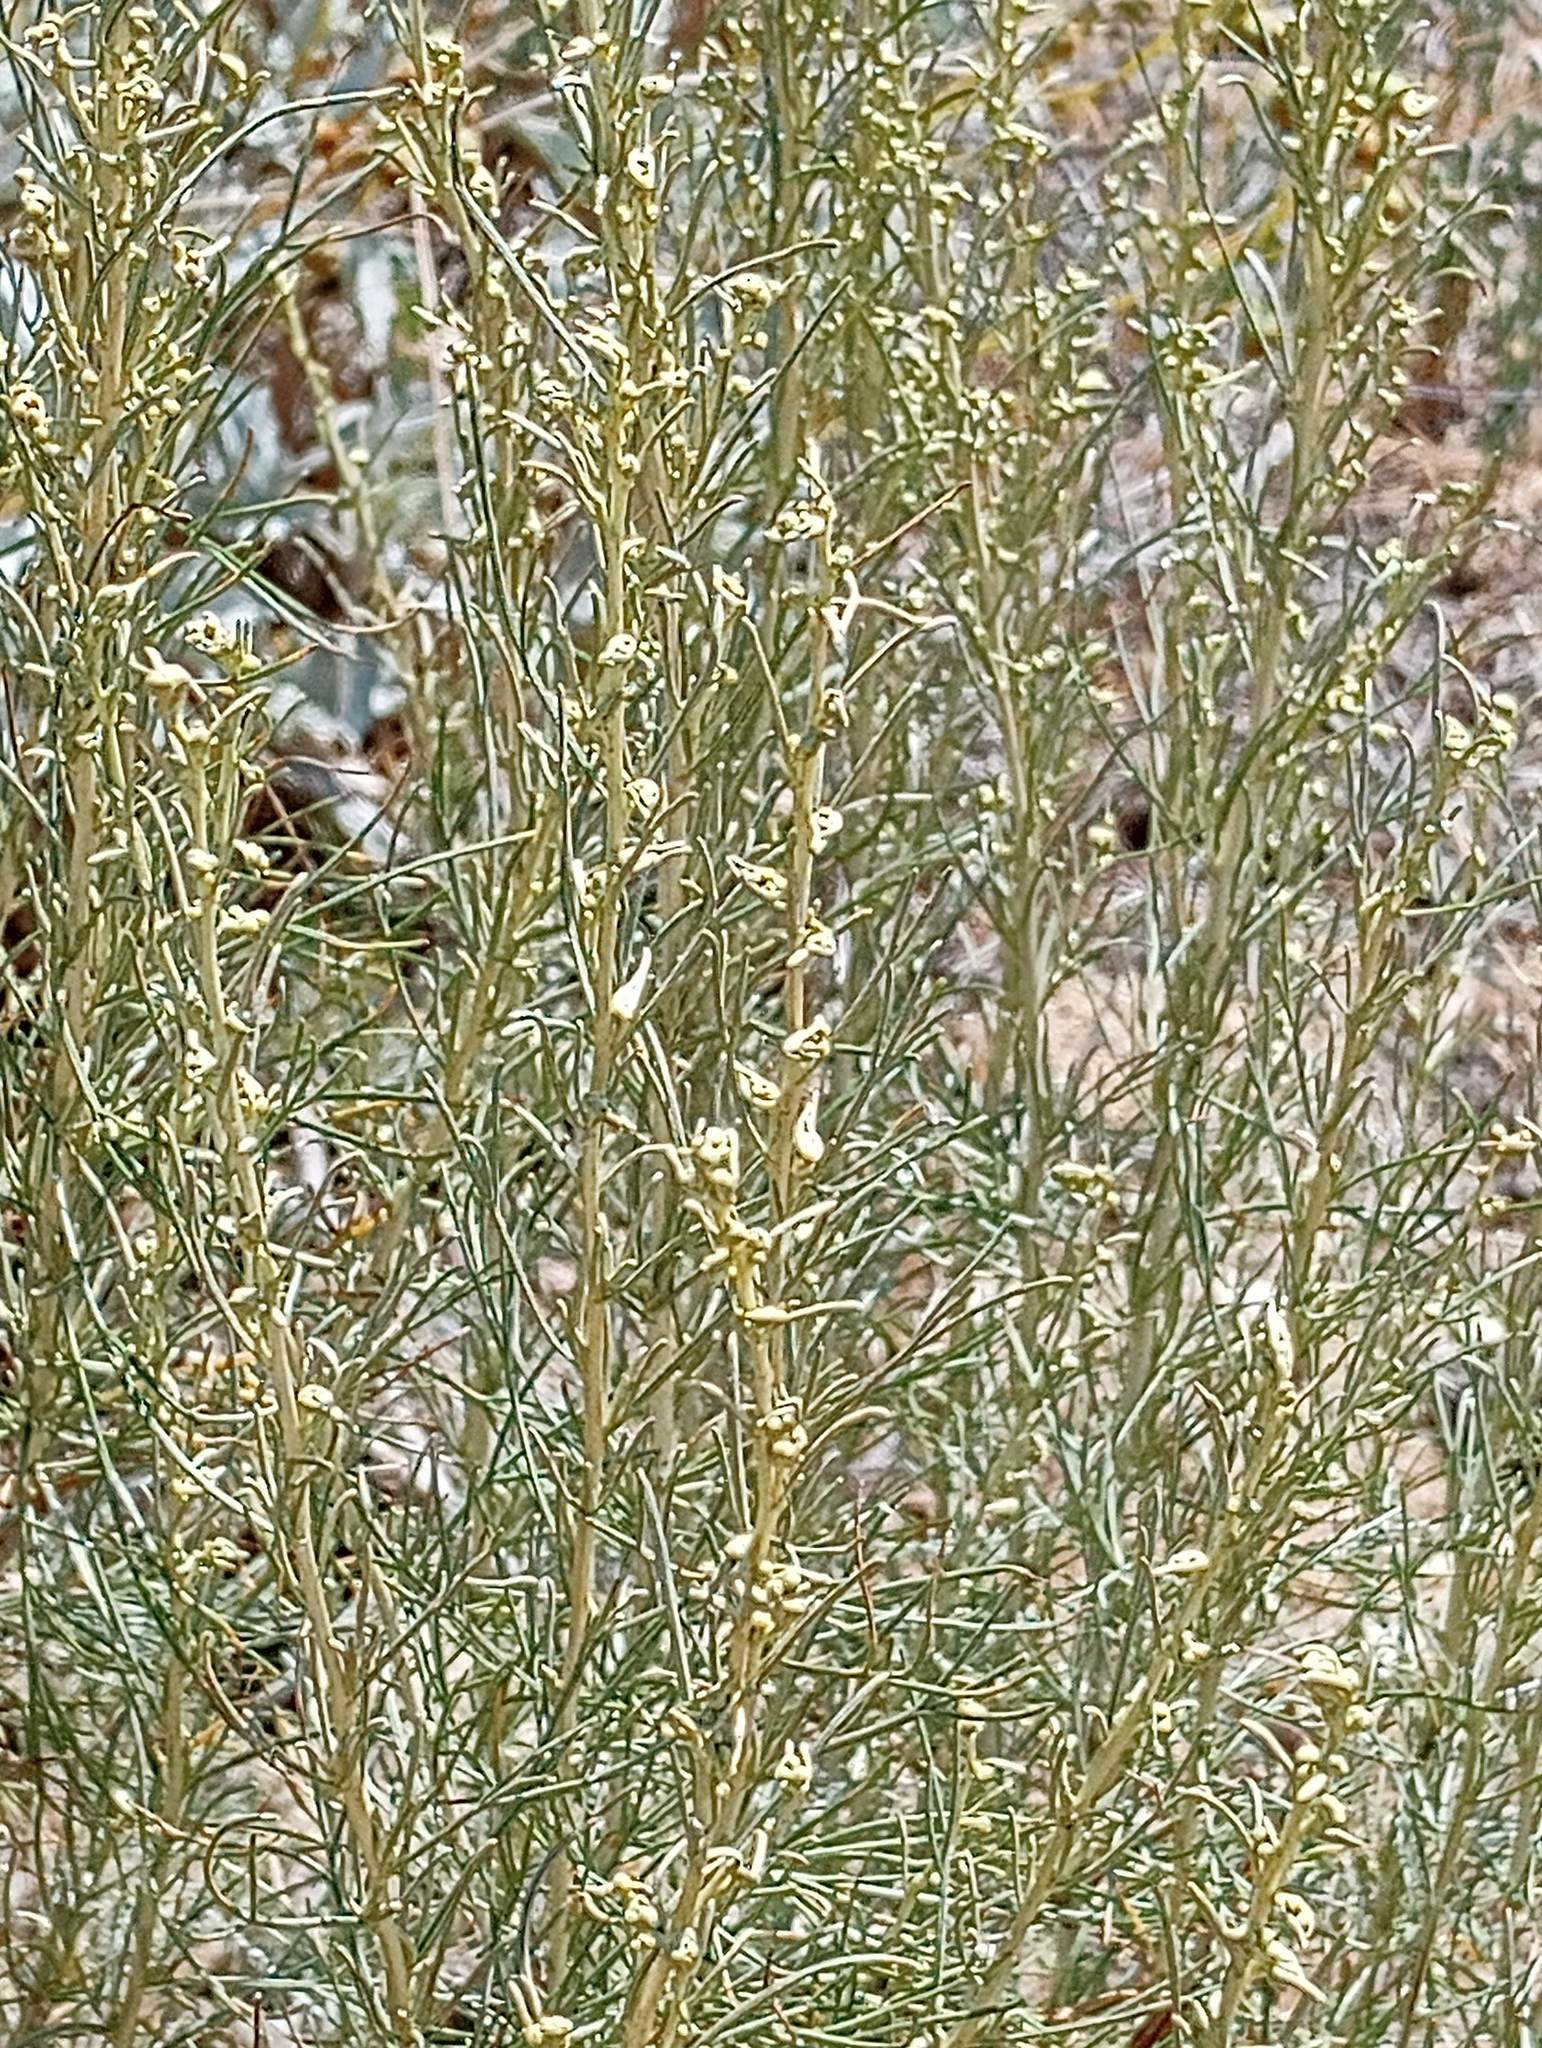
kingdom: Plantae
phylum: Tracheophyta
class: Magnoliopsida
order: Asterales
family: Asteraceae
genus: Artemisia
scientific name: Artemisia californica
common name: California sagebrush
